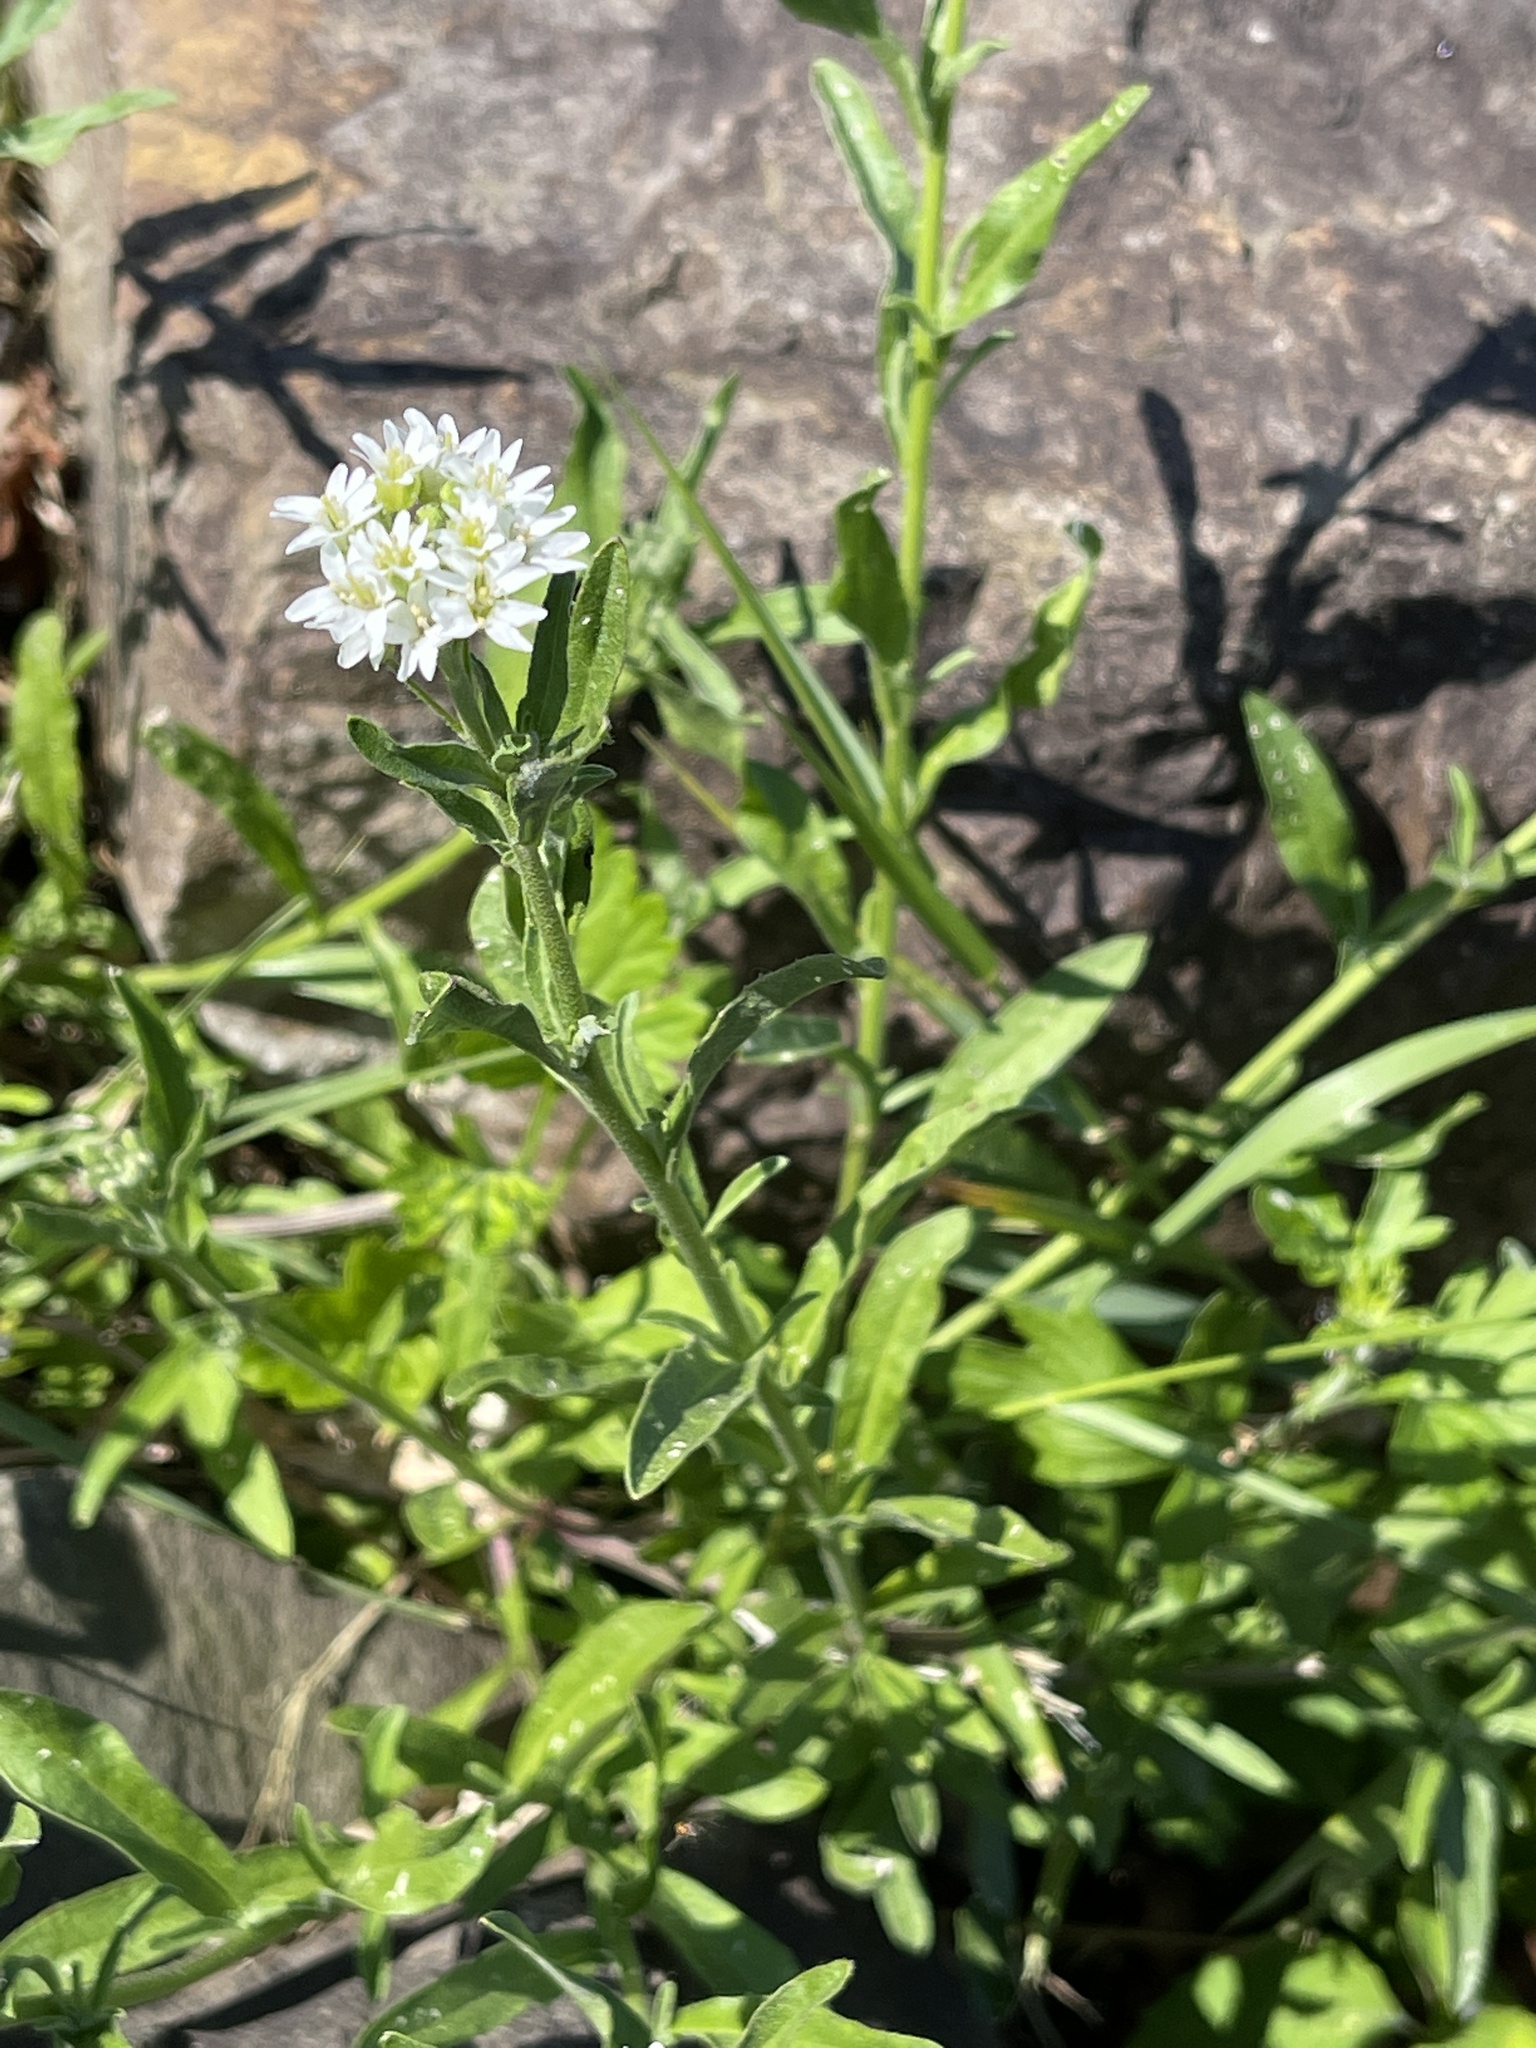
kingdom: Plantae
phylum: Tracheophyta
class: Magnoliopsida
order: Brassicales
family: Brassicaceae
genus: Berteroa
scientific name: Berteroa incana
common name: Hoary alison
